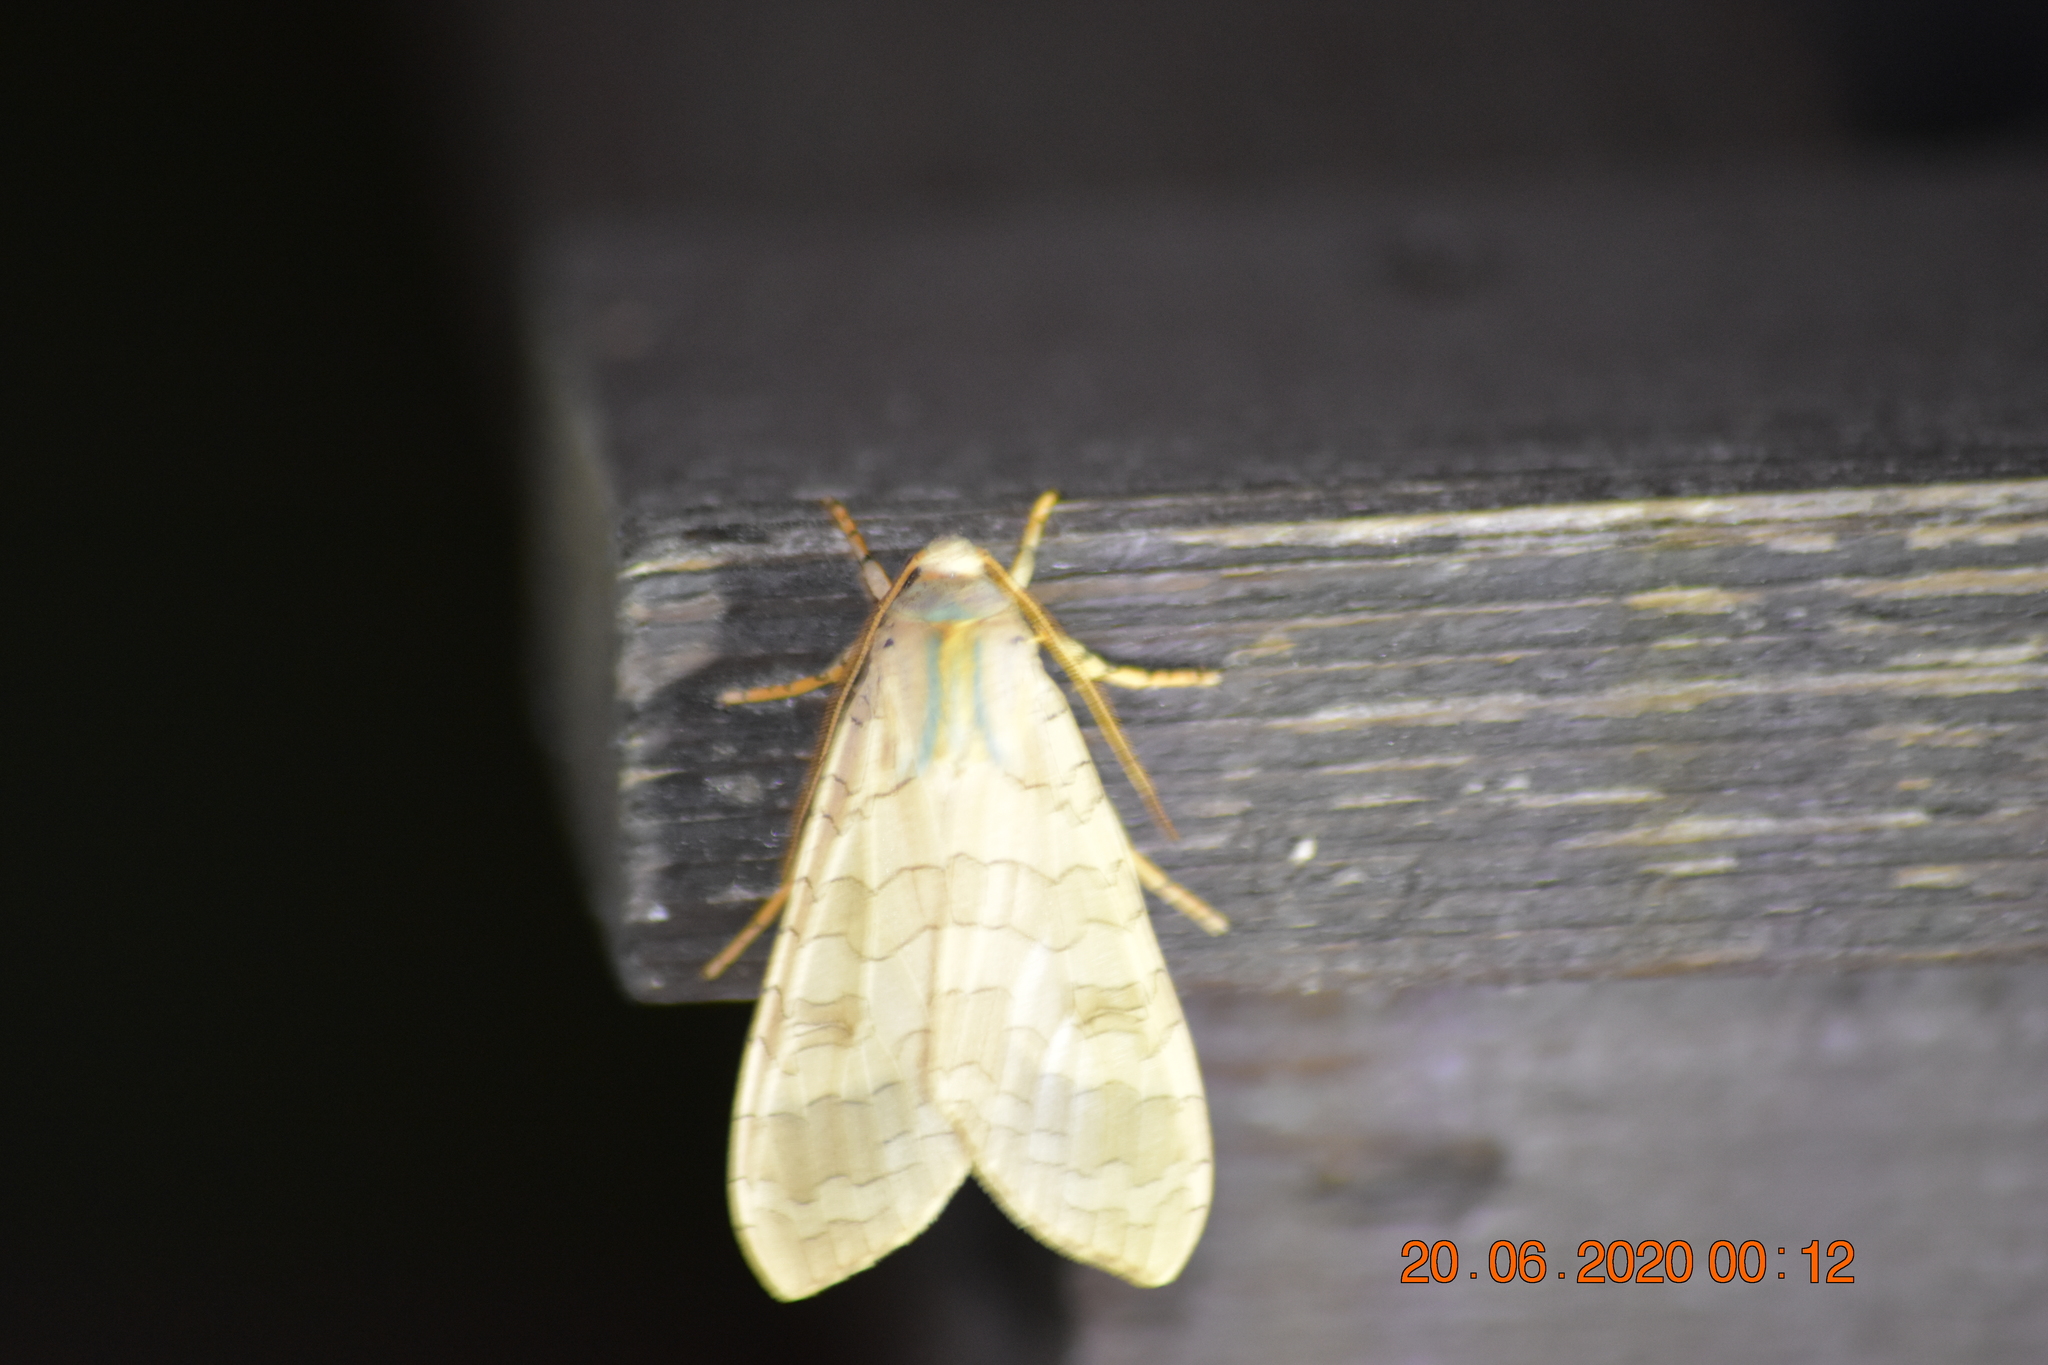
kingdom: Animalia
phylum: Arthropoda
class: Insecta
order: Lepidoptera
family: Erebidae
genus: Halysidota
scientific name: Halysidota tessellaris
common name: Banded tussock moth
